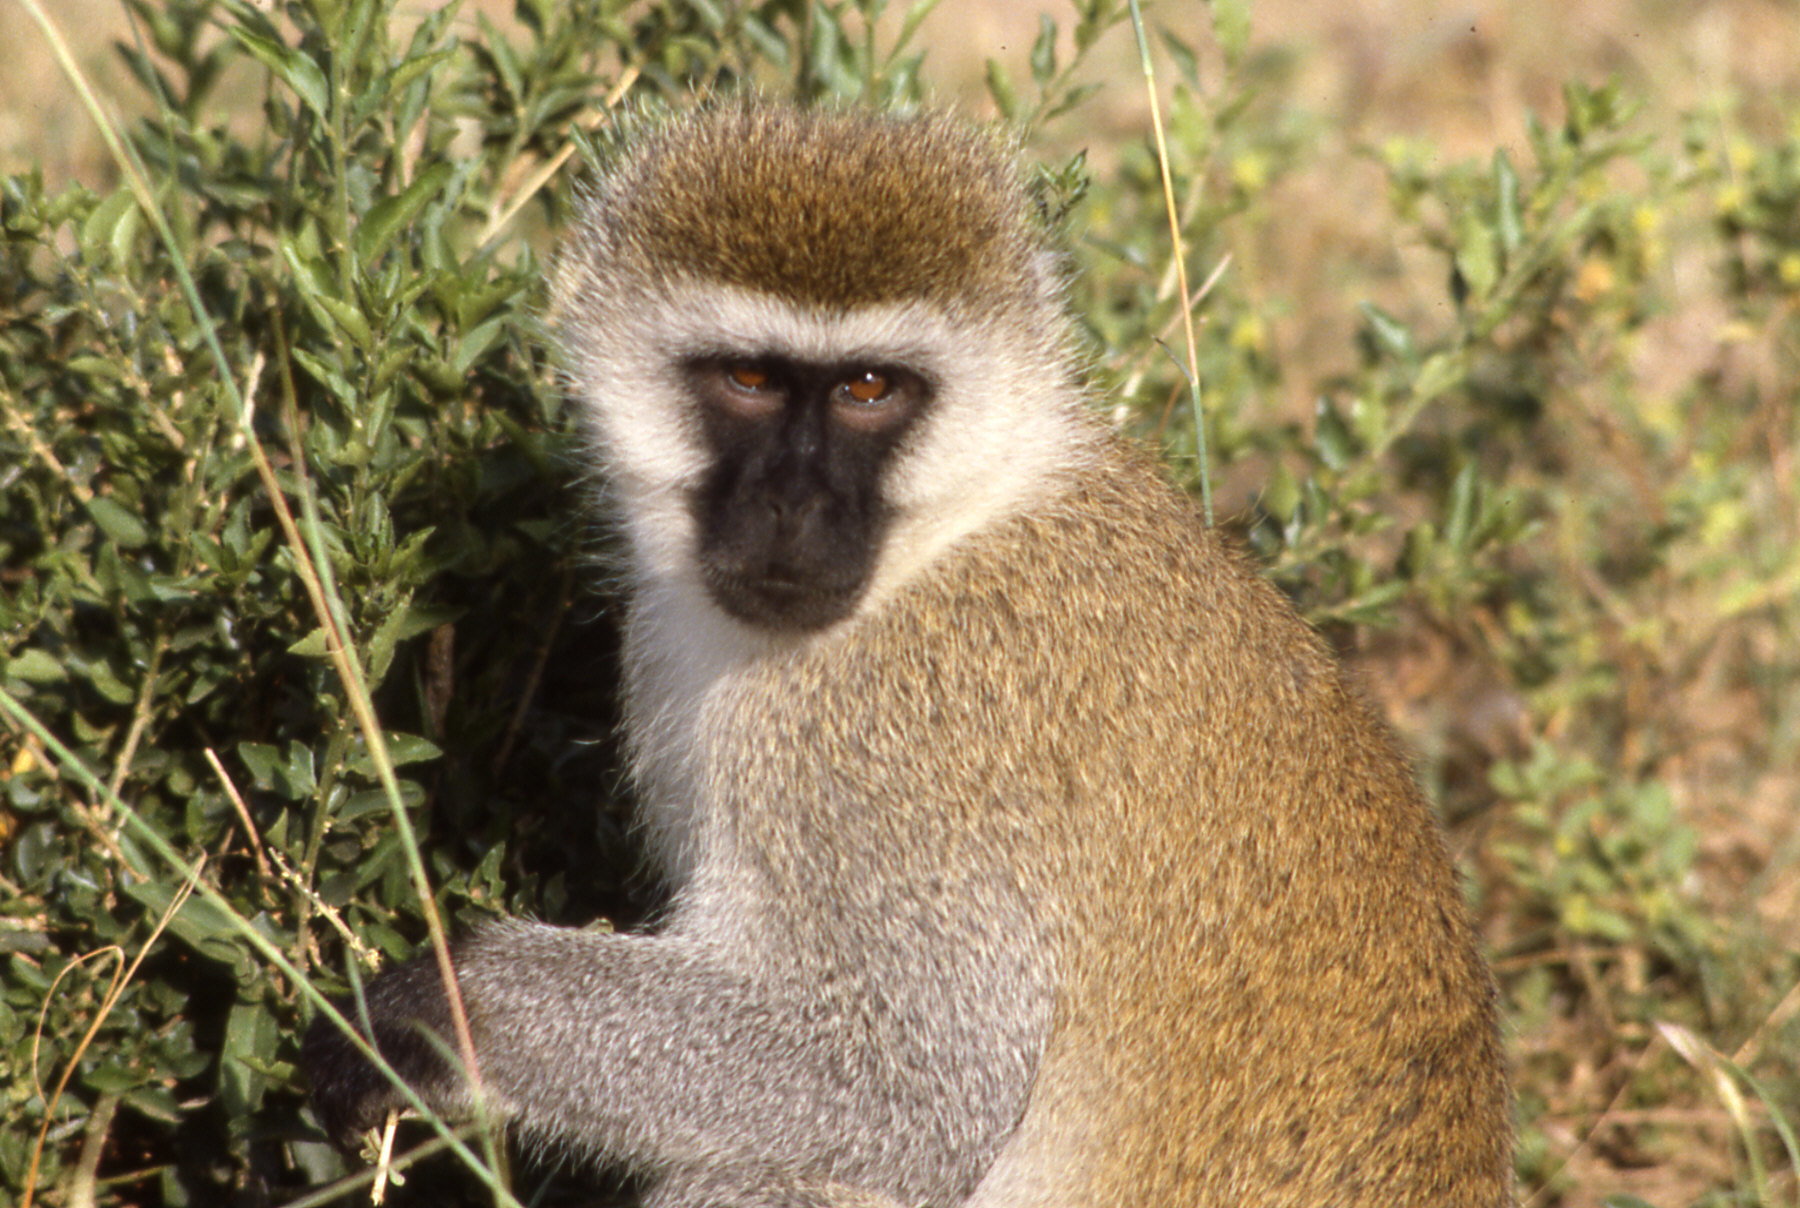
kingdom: Animalia
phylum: Chordata
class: Mammalia
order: Primates
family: Cercopithecidae
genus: Chlorocebus
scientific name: Chlorocebus pygerythrus
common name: Vervet monkey
